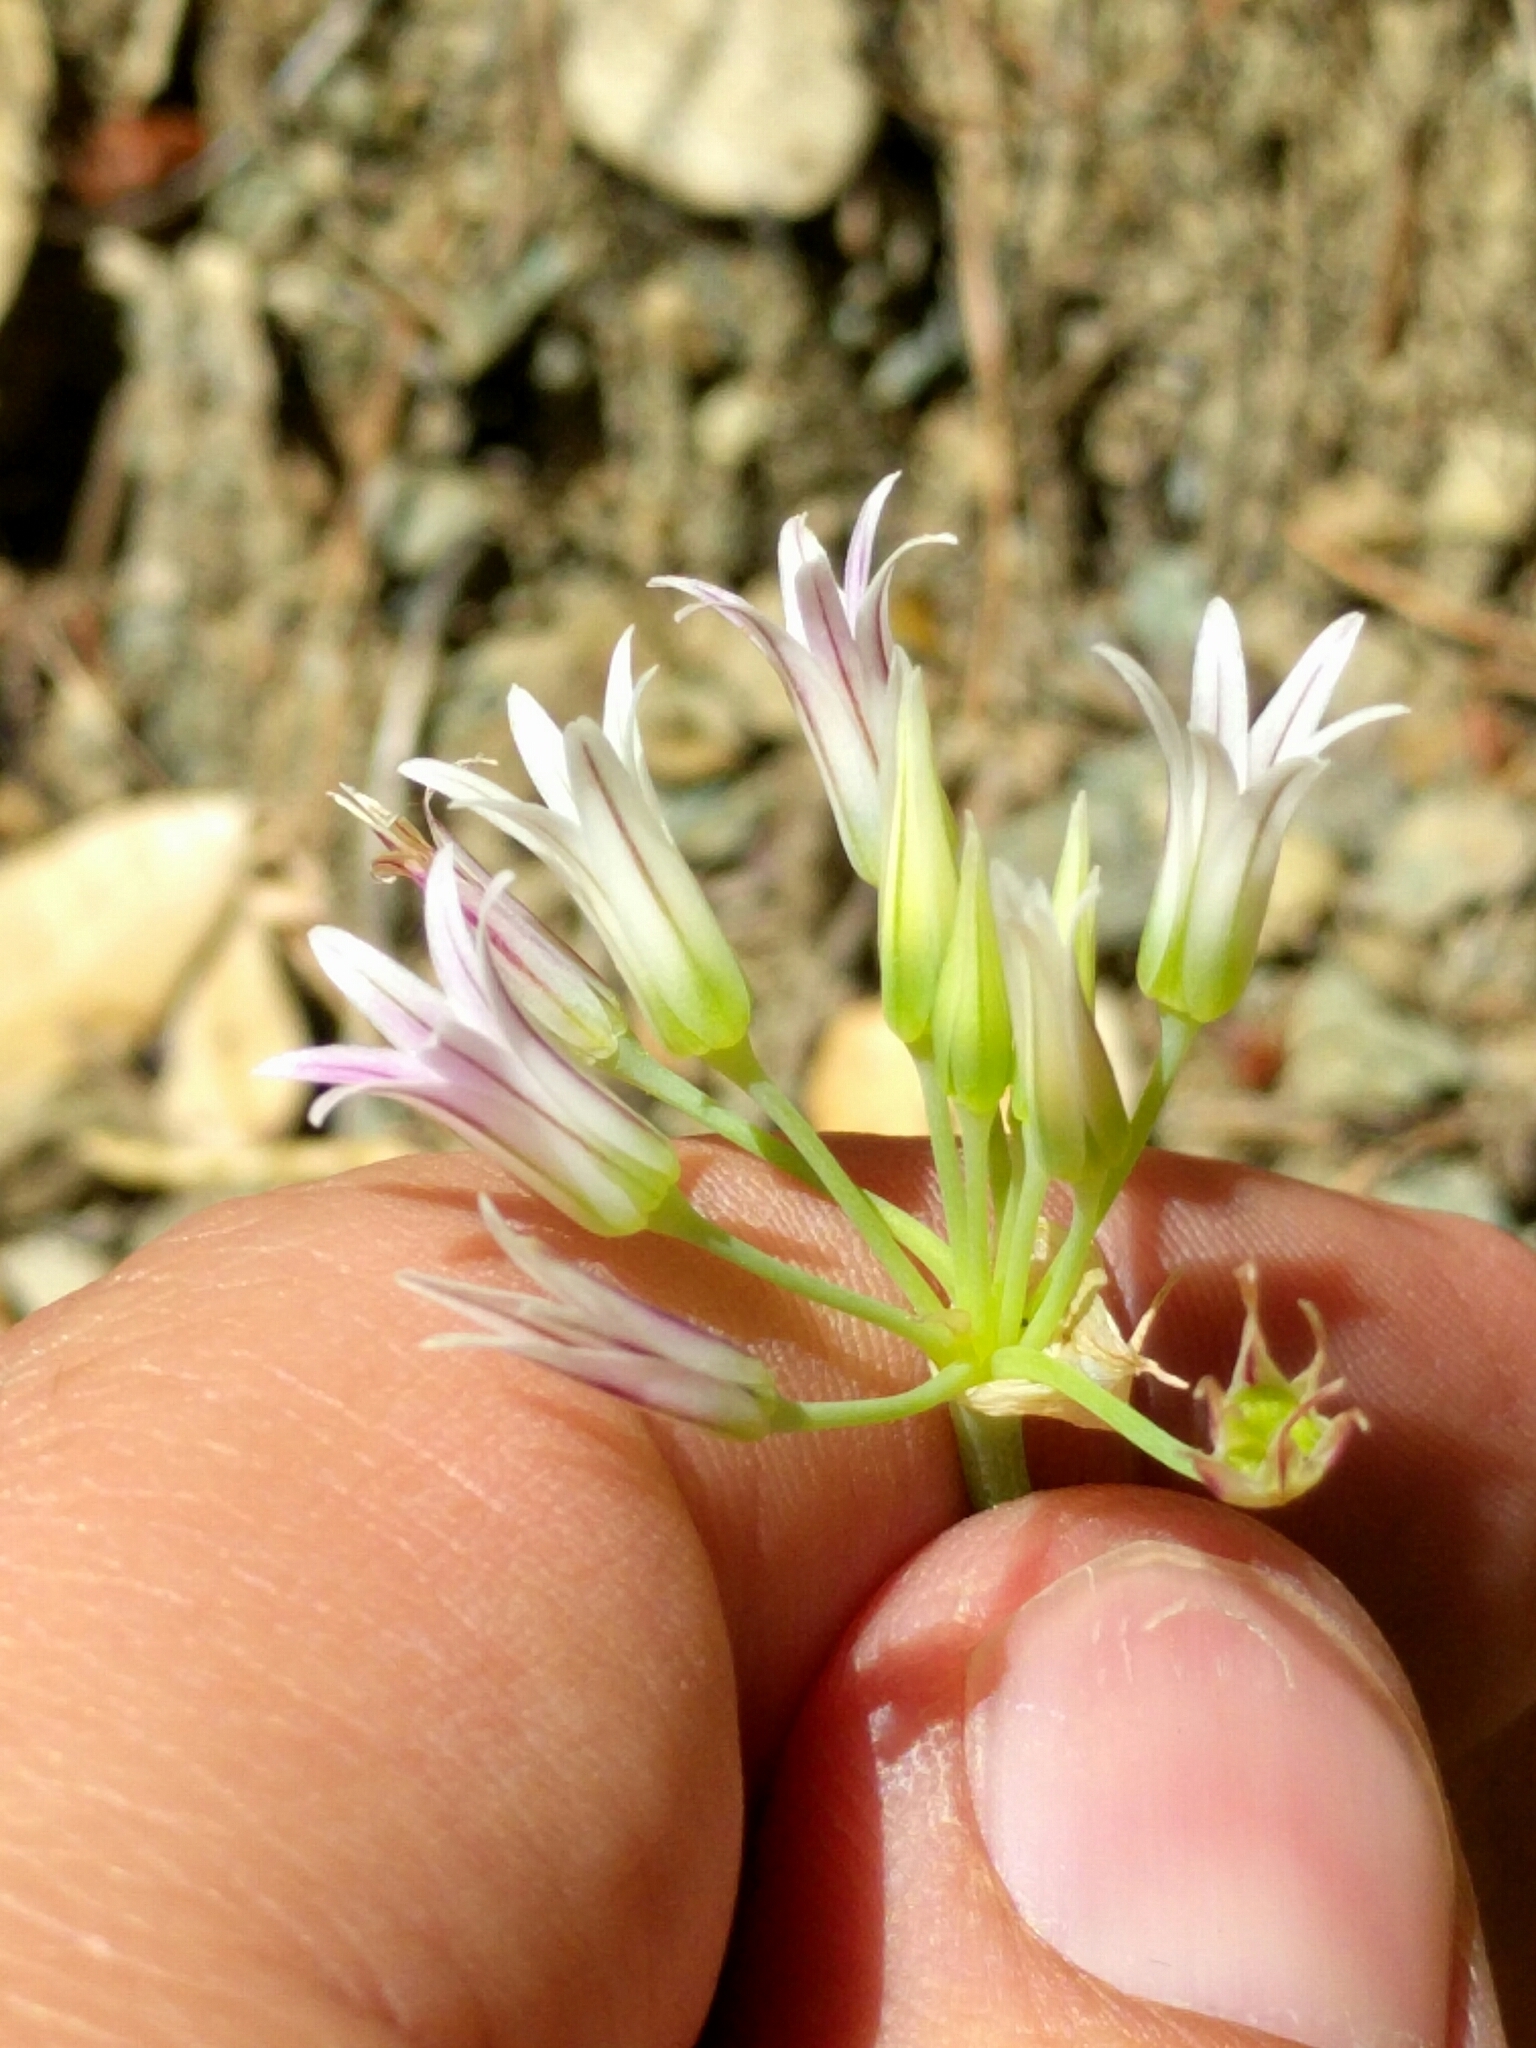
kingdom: Plantae
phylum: Tracheophyta
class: Liliopsida
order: Asparagales
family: Amaryllidaceae
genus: Allium
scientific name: Allium bolanderi
